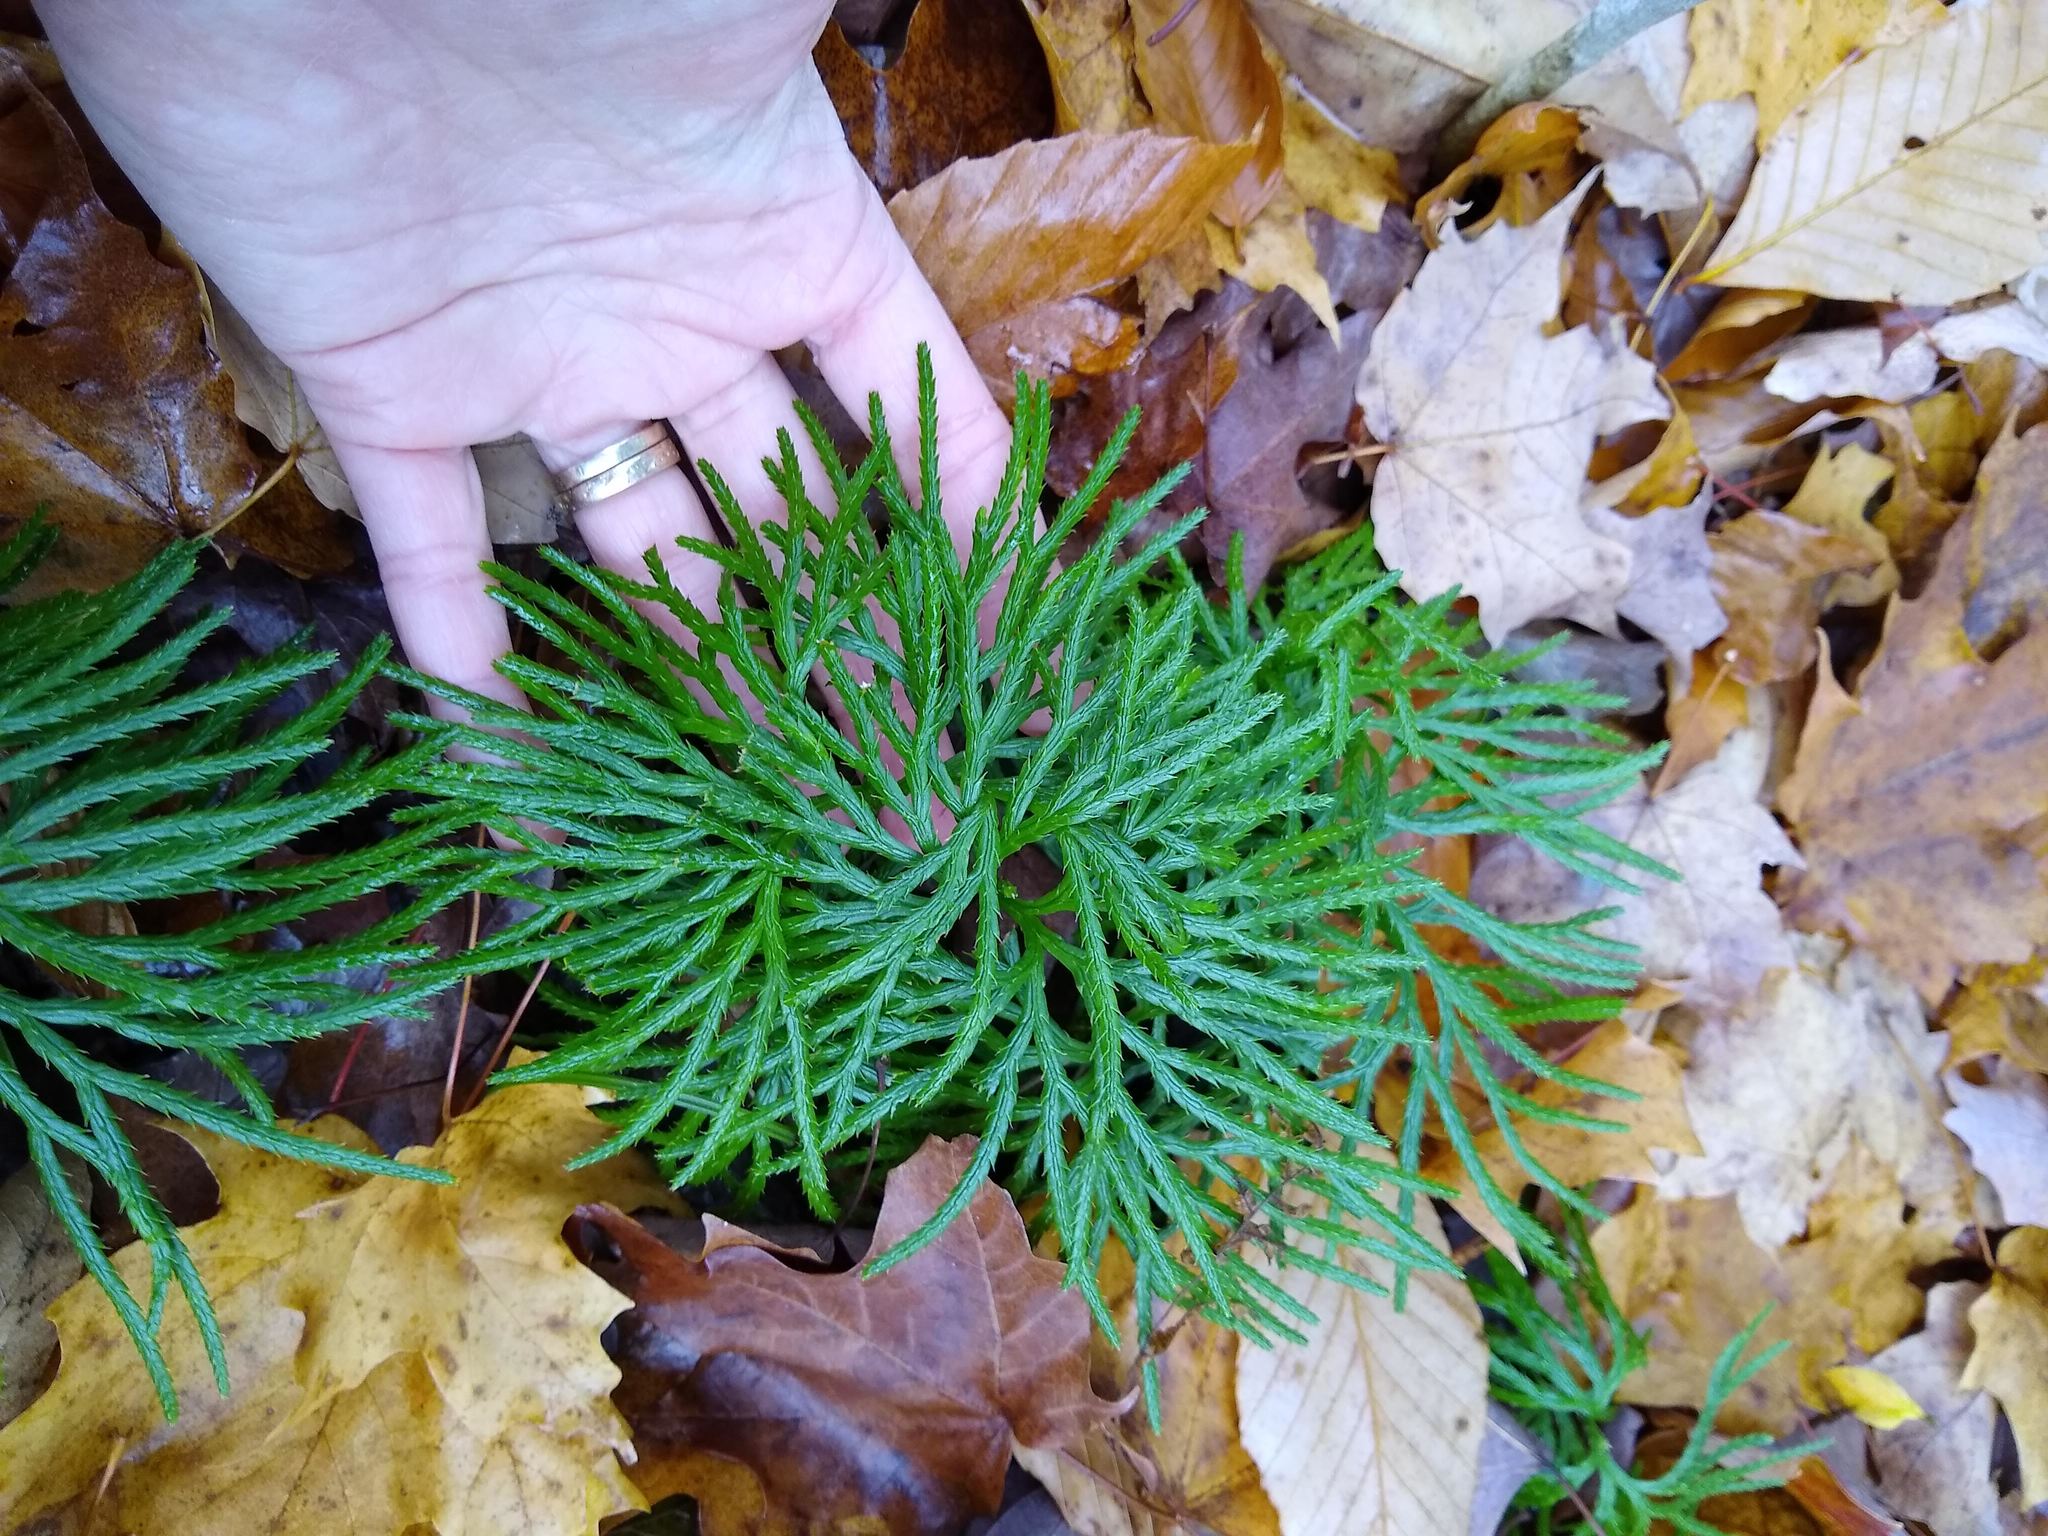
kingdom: Plantae
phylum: Tracheophyta
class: Lycopodiopsida
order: Lycopodiales
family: Lycopodiaceae
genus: Diphasiastrum
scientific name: Diphasiastrum digitatum
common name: Southern running-pine
